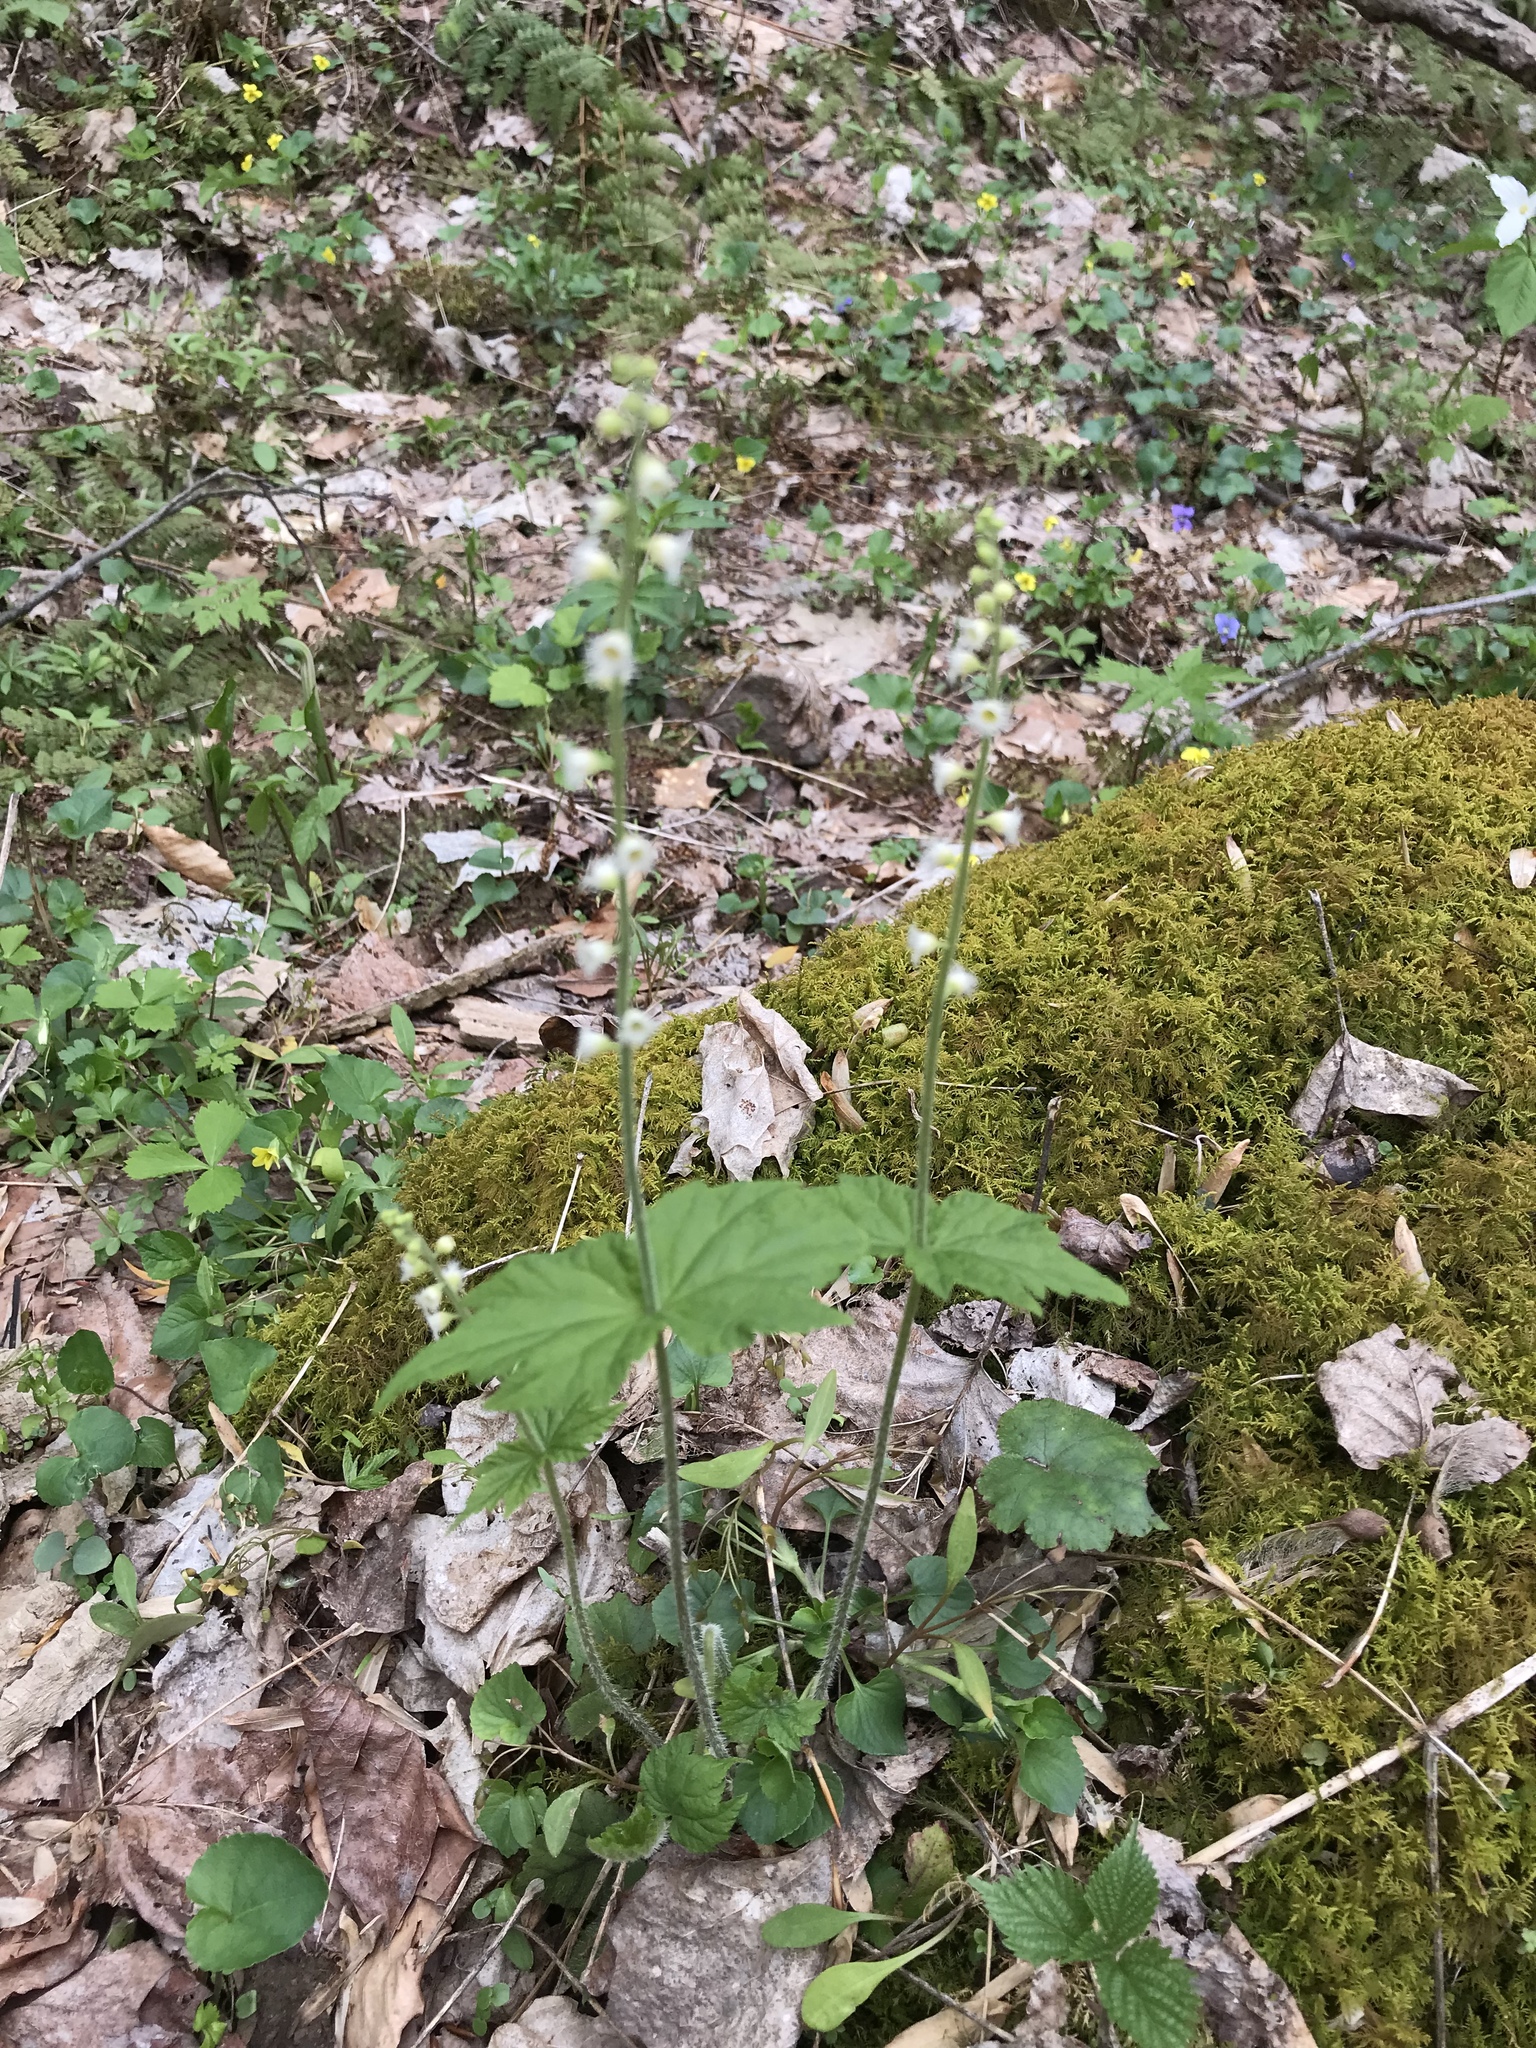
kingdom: Plantae
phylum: Tracheophyta
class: Magnoliopsida
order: Saxifragales
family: Saxifragaceae
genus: Mitella
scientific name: Mitella diphylla
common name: Coolwort
